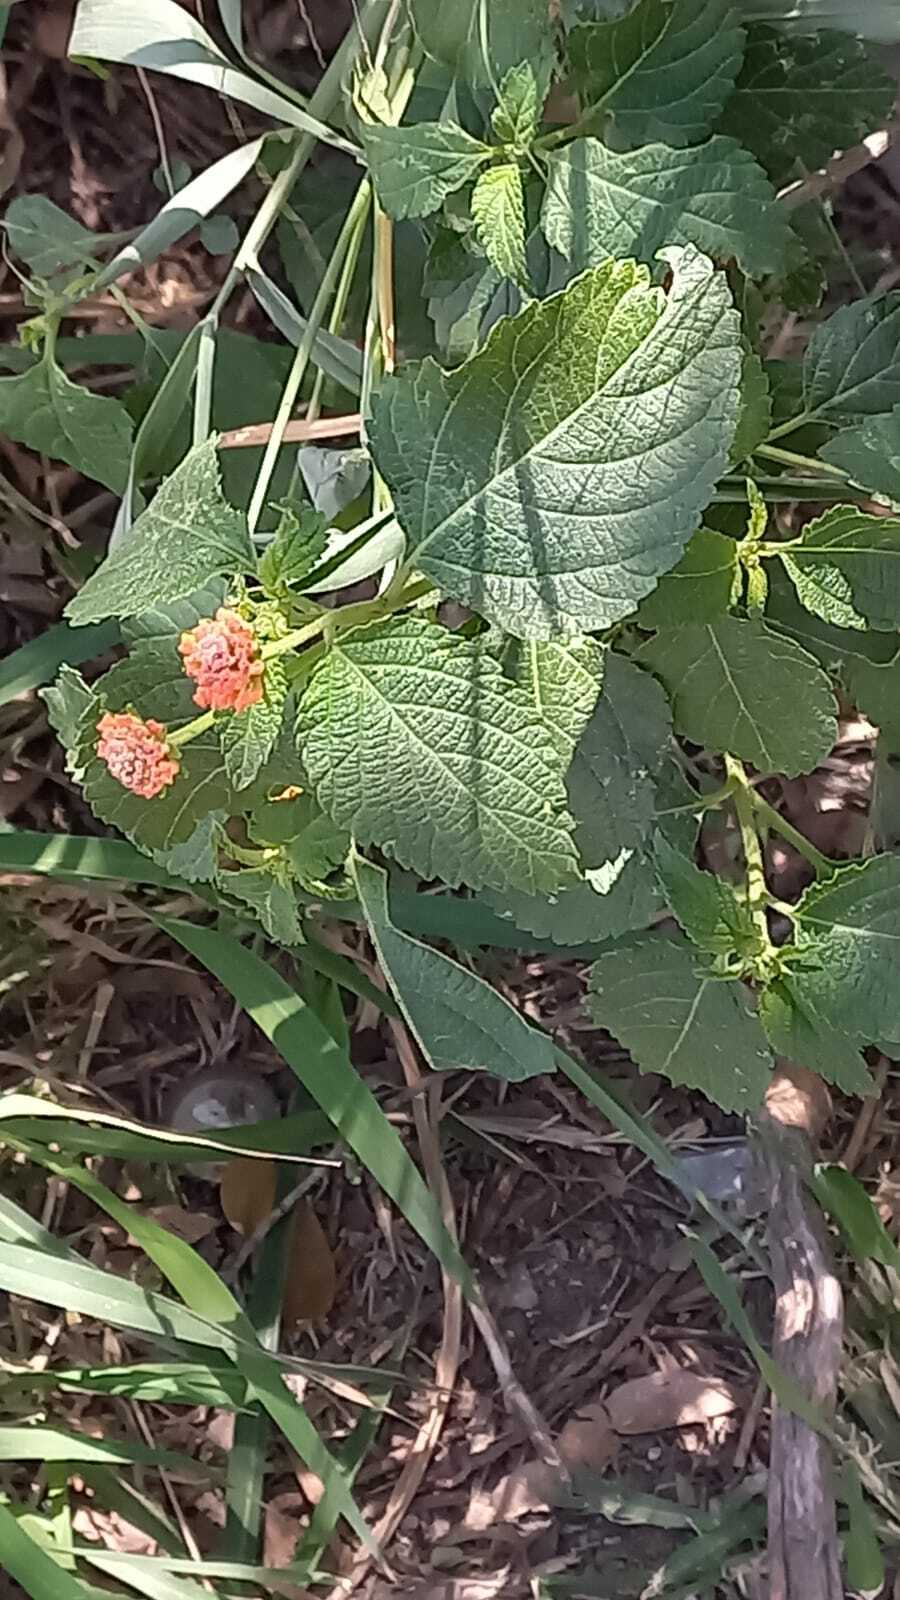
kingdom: Plantae
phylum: Tracheophyta
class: Magnoliopsida
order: Lamiales
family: Verbenaceae
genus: Lantana
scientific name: Lantana camara
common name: Lantana
